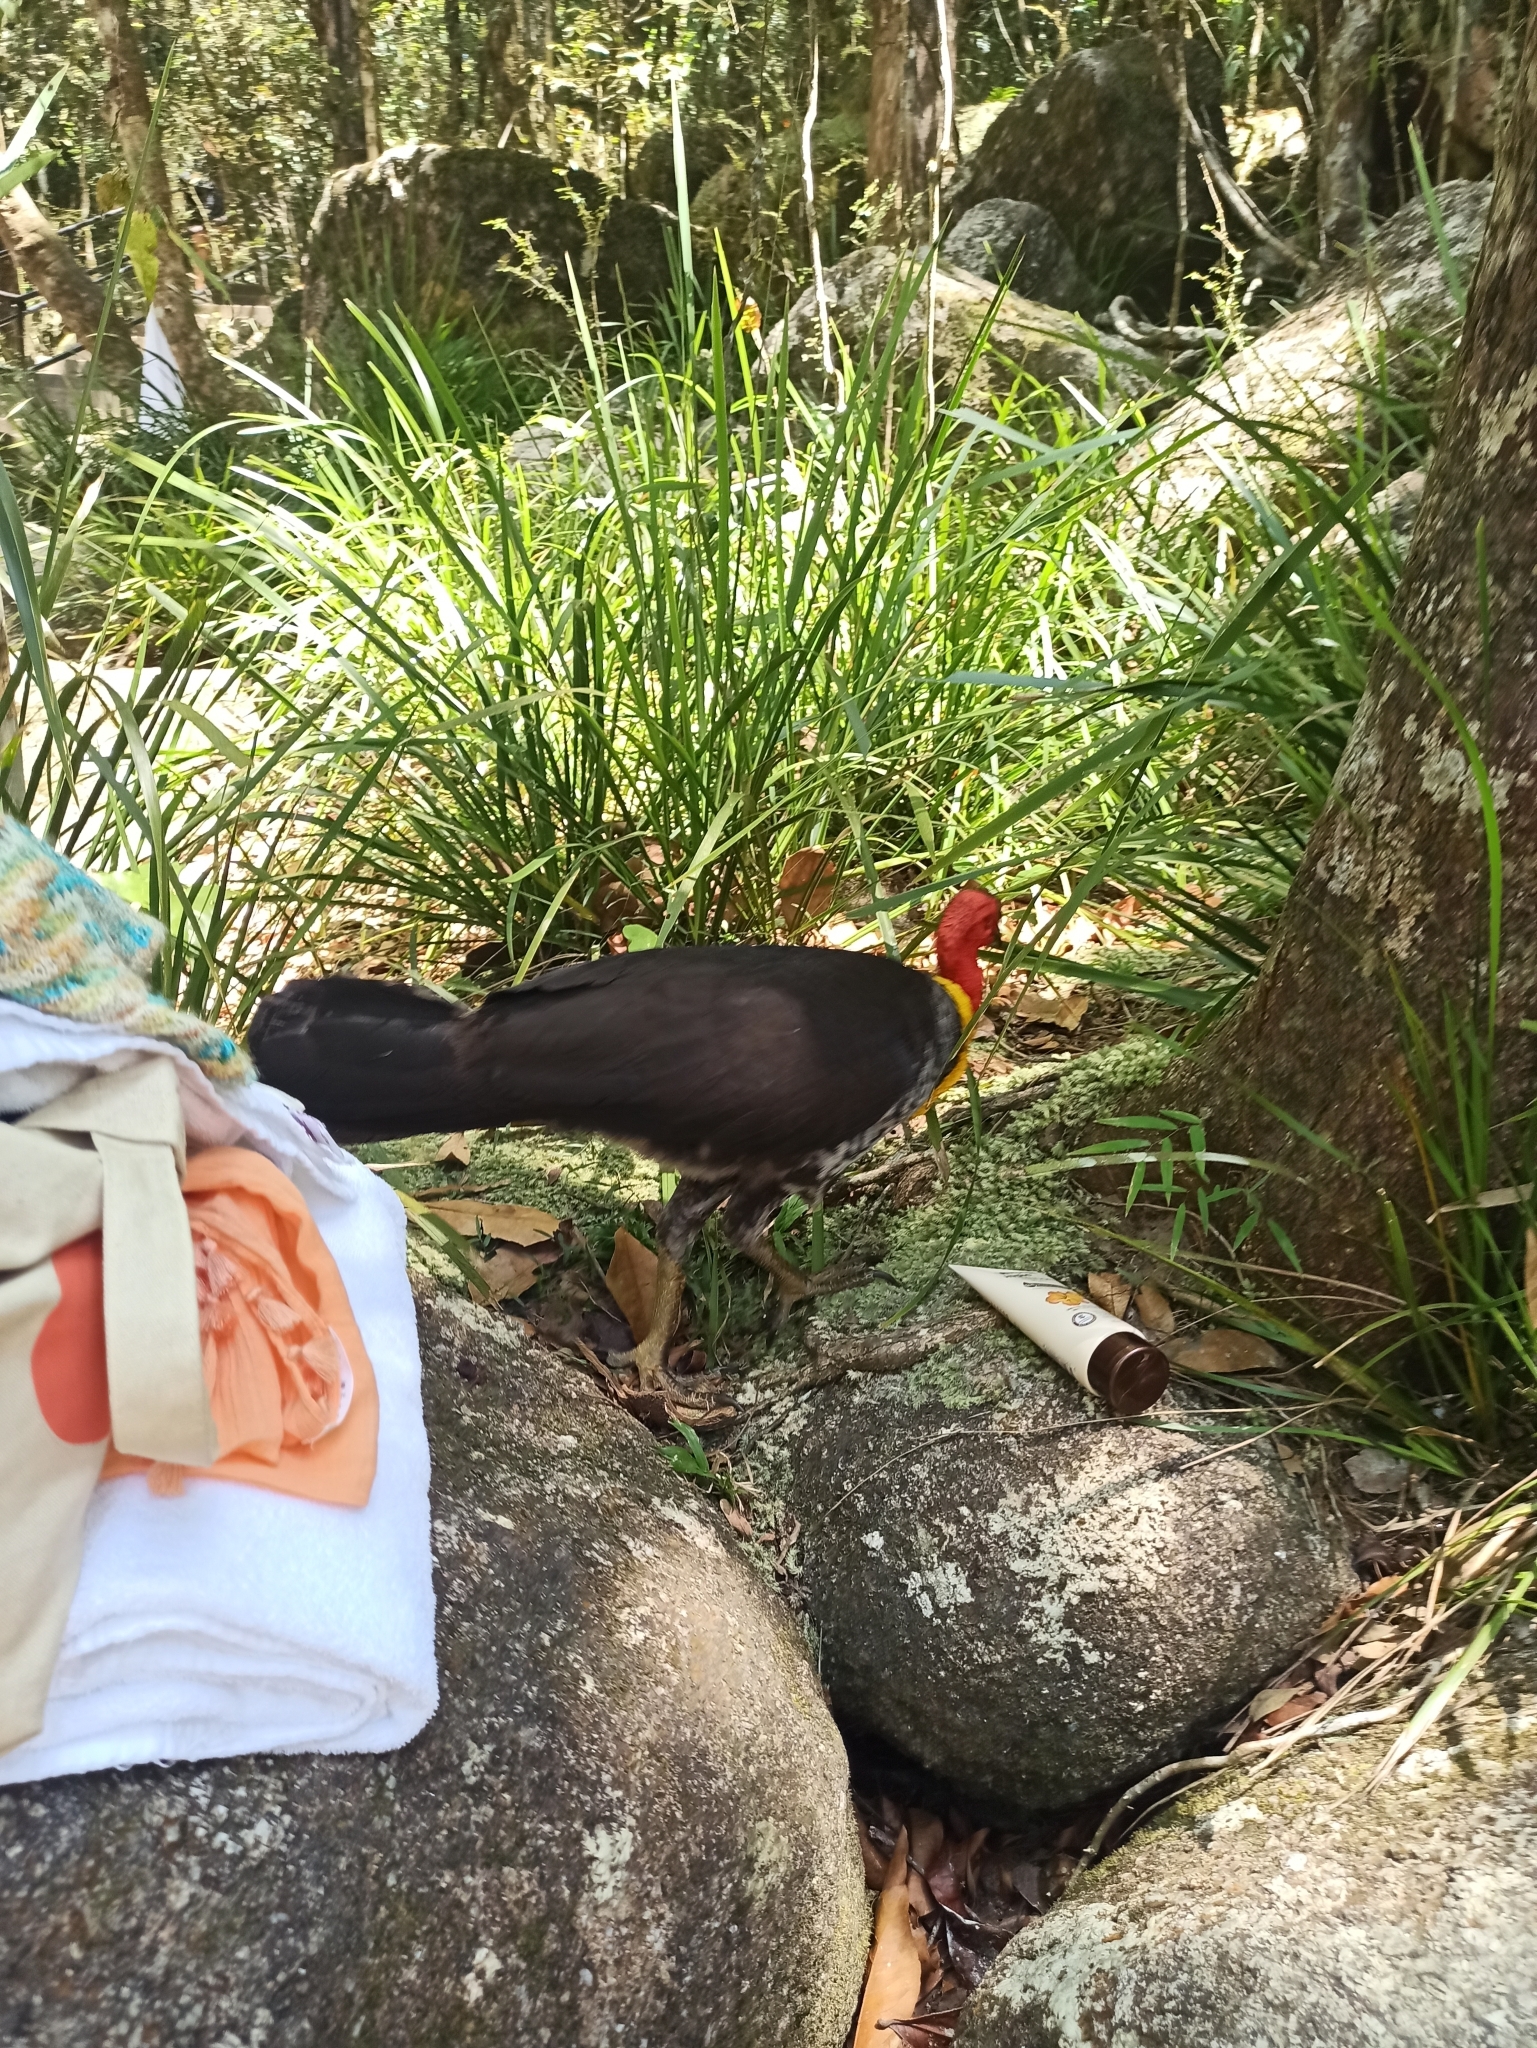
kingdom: Animalia
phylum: Chordata
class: Aves
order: Galliformes
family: Megapodiidae
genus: Alectura
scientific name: Alectura lathami
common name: Australian brushturkey
